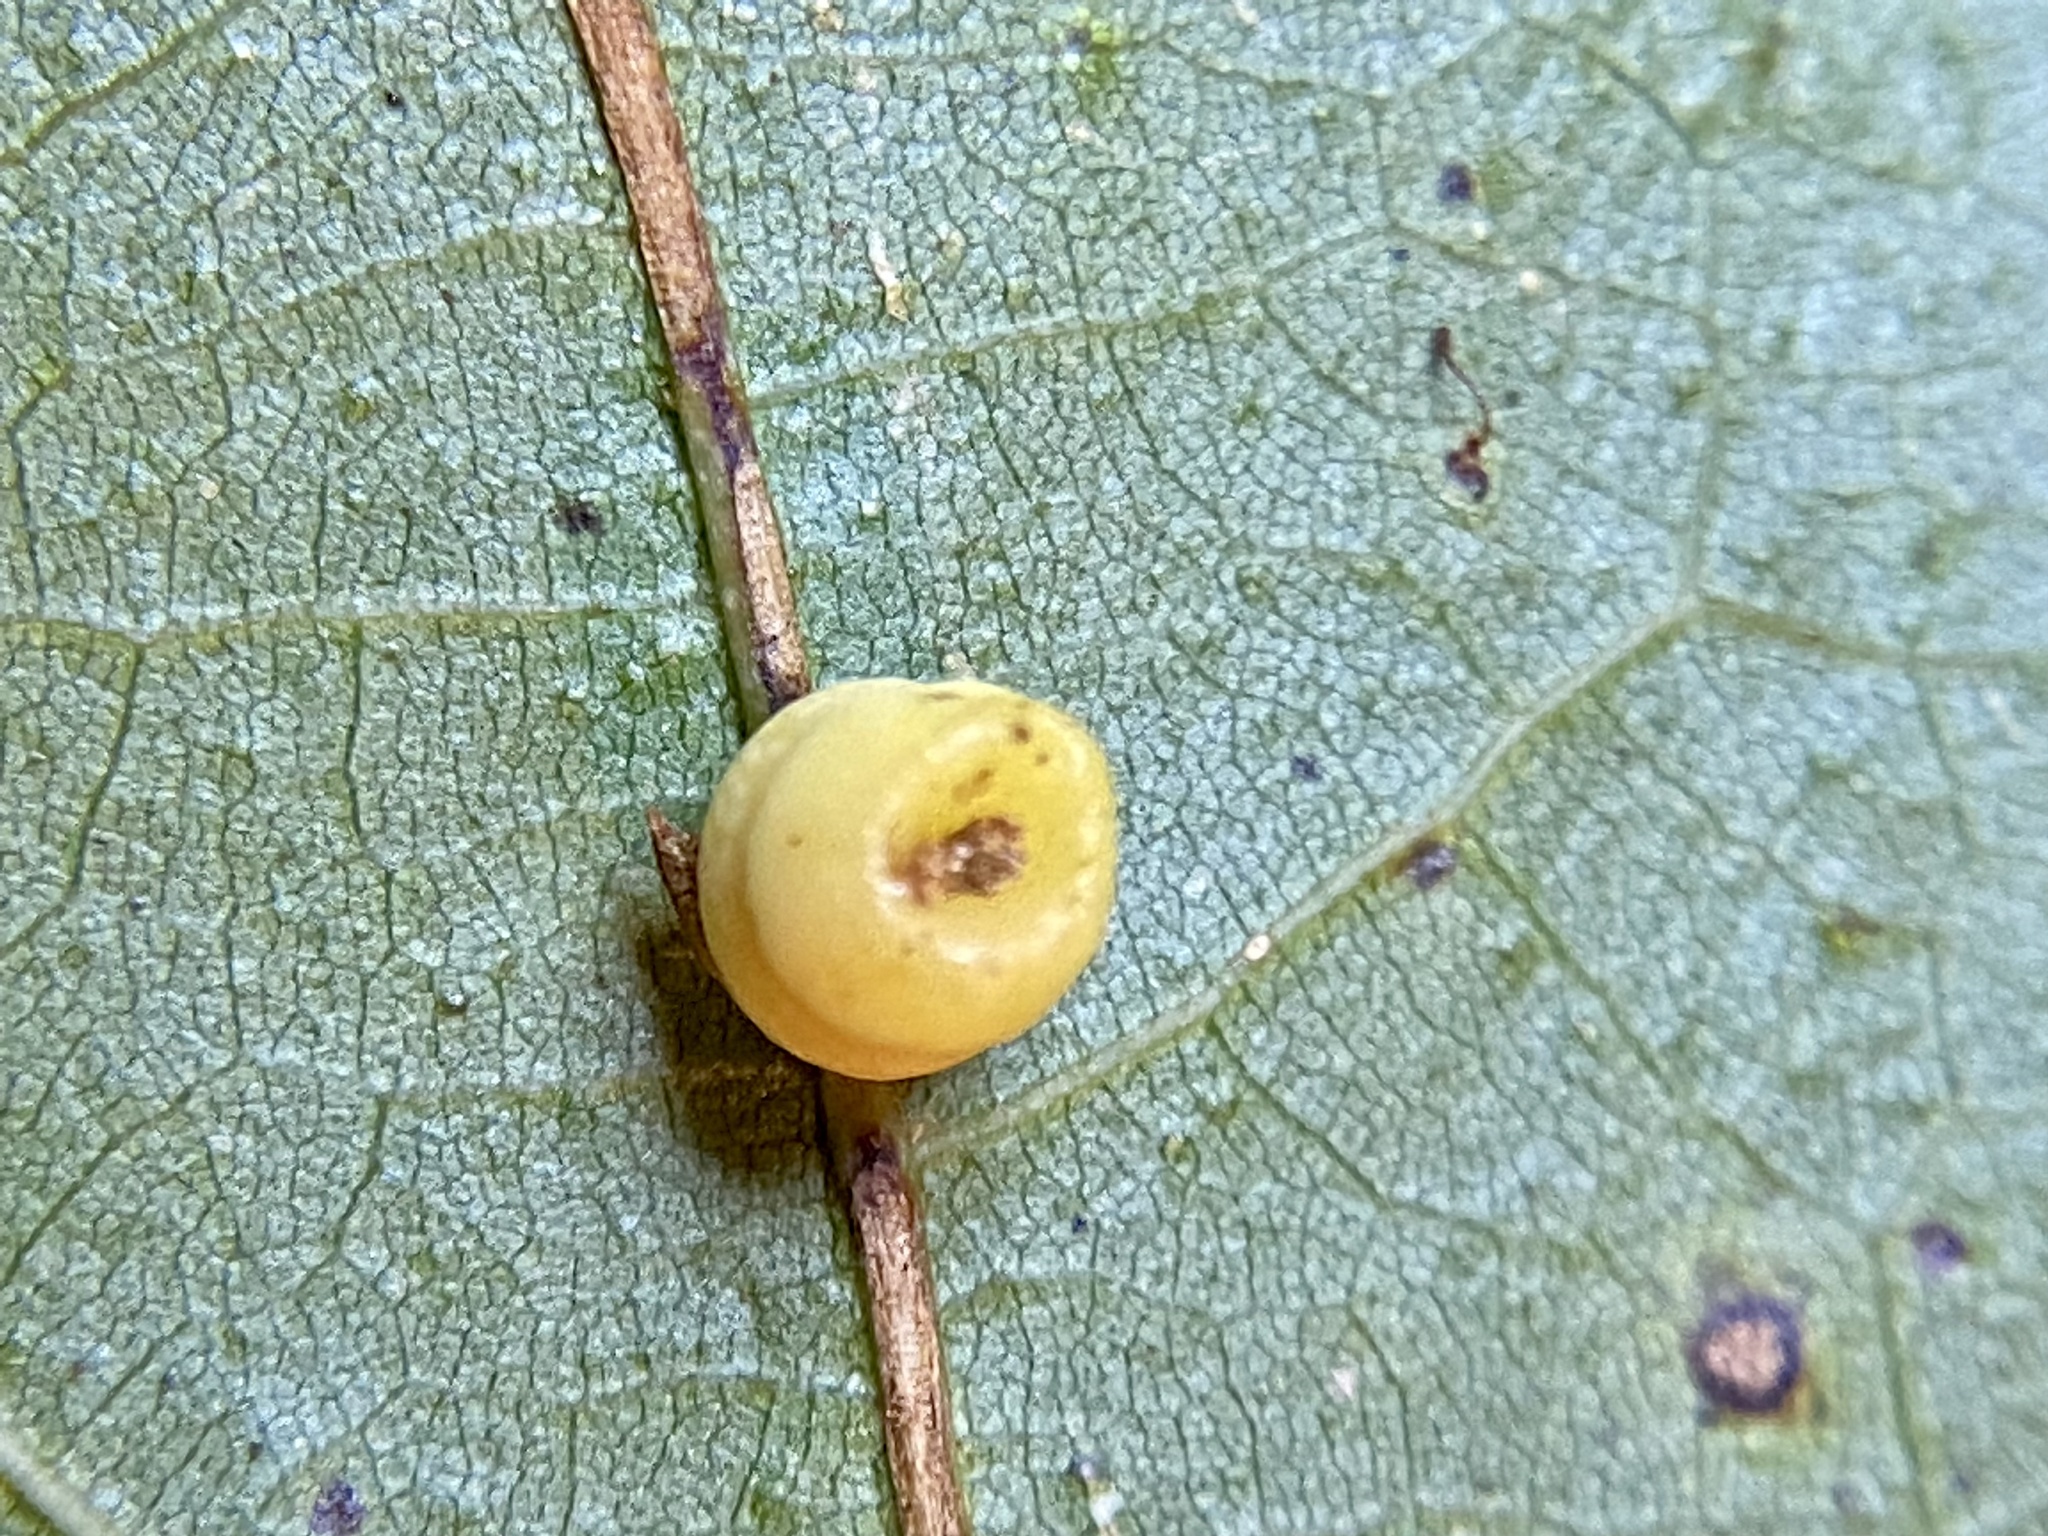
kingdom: Animalia
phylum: Arthropoda
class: Insecta
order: Hymenoptera
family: Cynipidae
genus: Kokkocynips
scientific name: Kokkocynips rileyi
